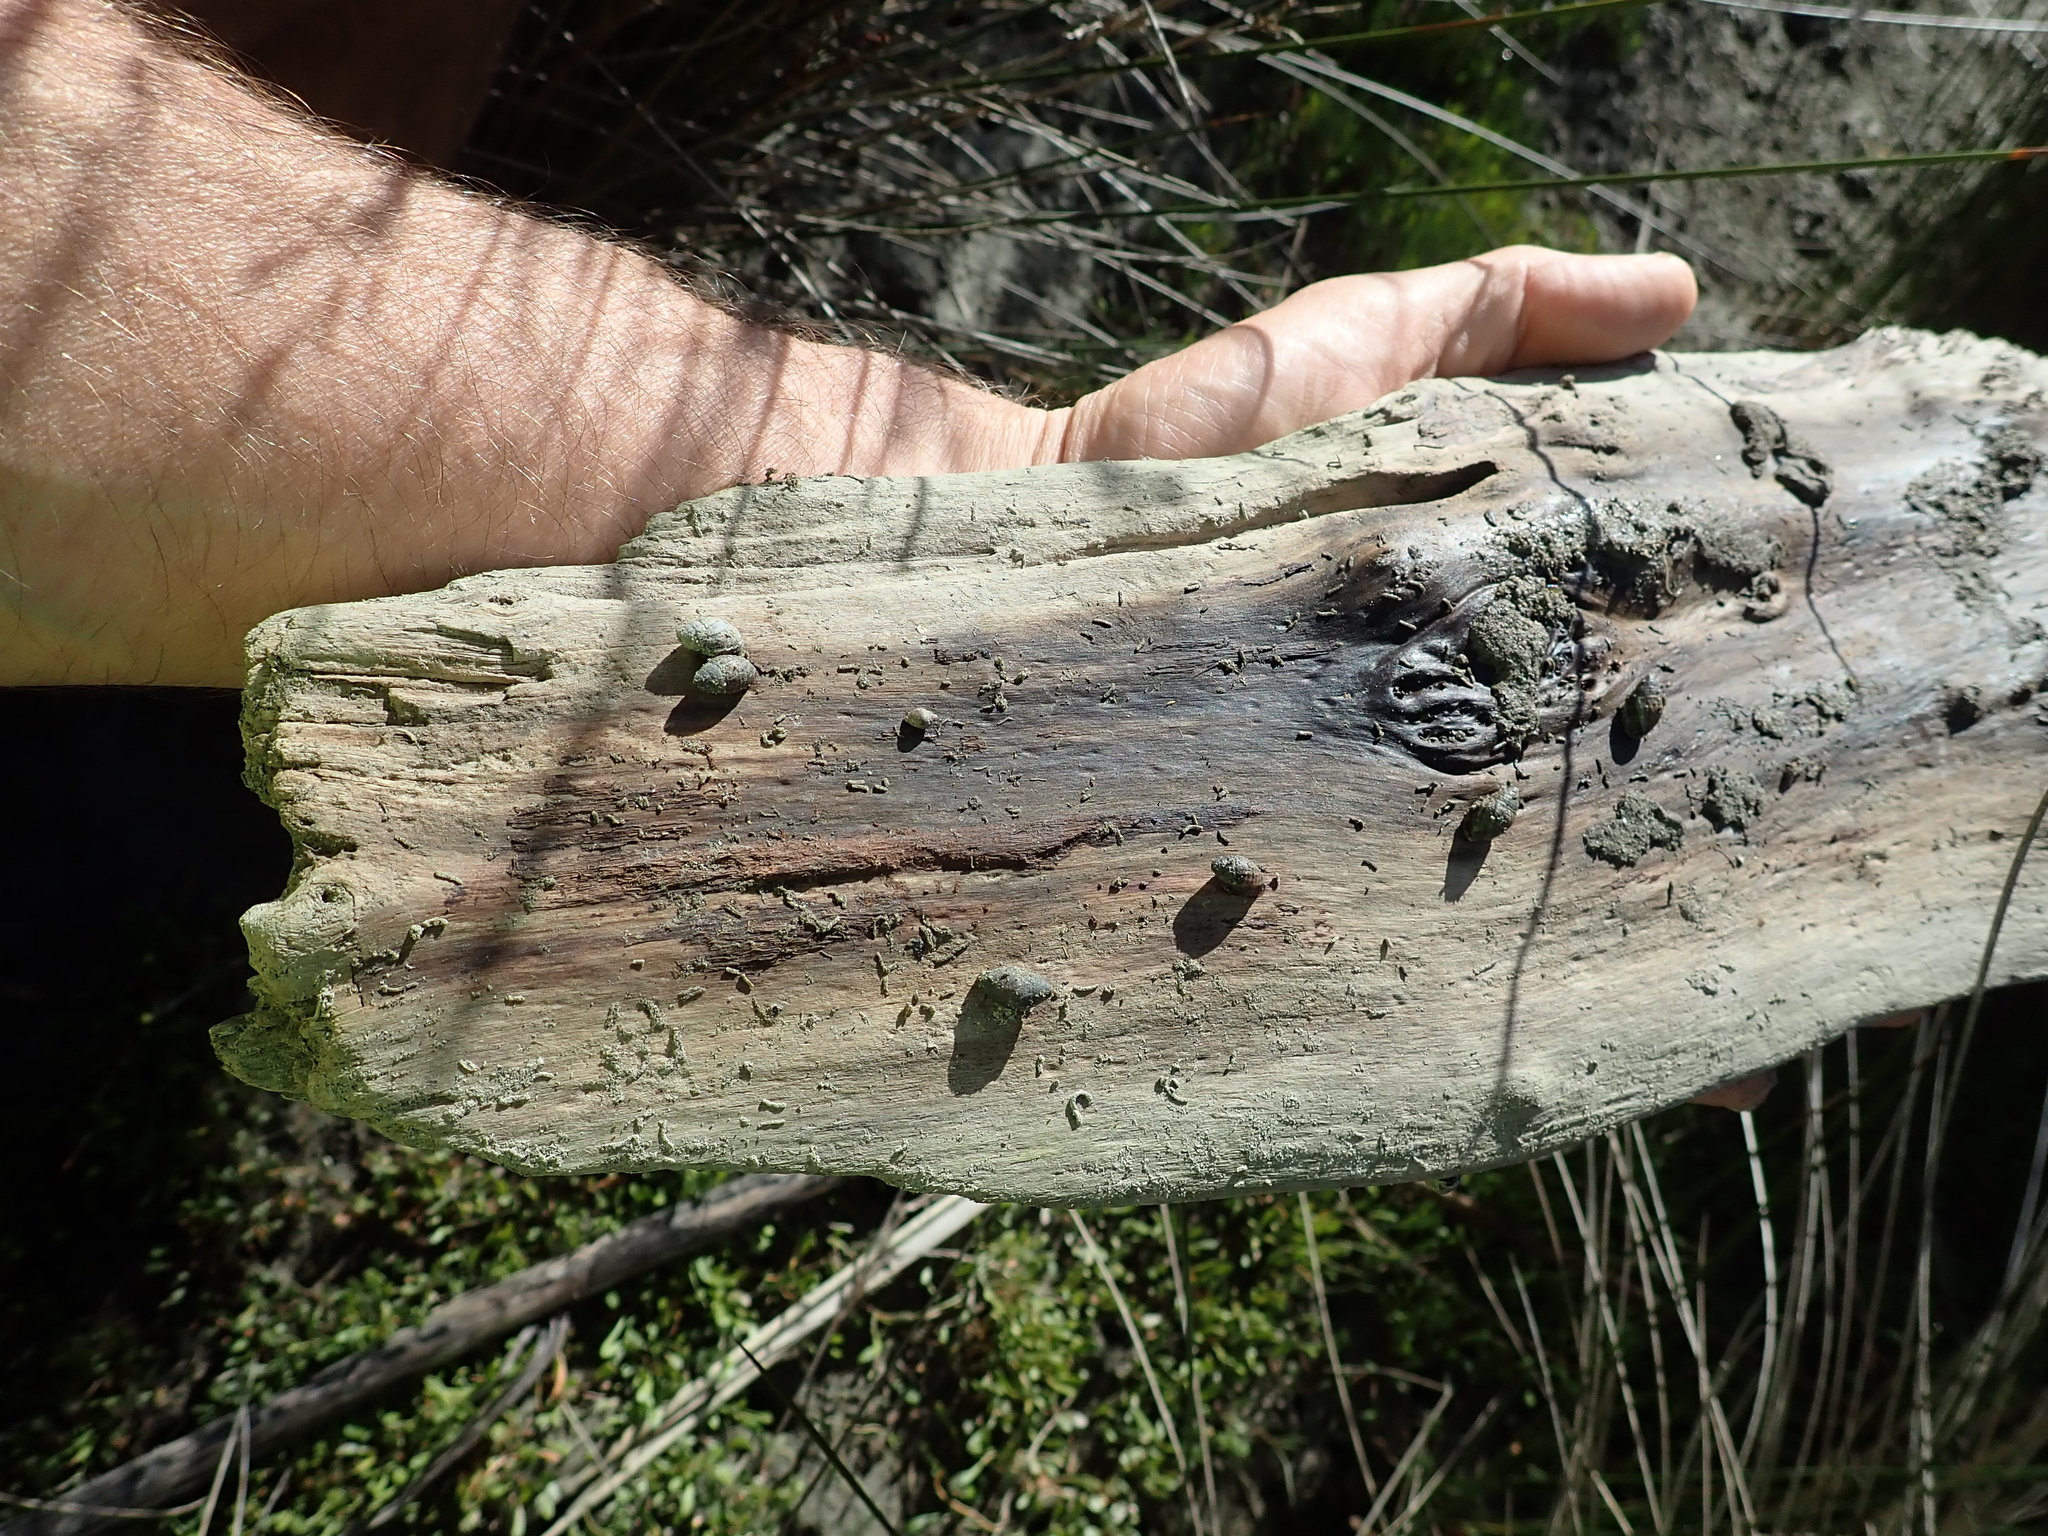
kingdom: Animalia
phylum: Mollusca
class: Gastropoda
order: Ellobiida
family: Ellobiidae
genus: Pleuroloba
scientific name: Pleuroloba costellaris
